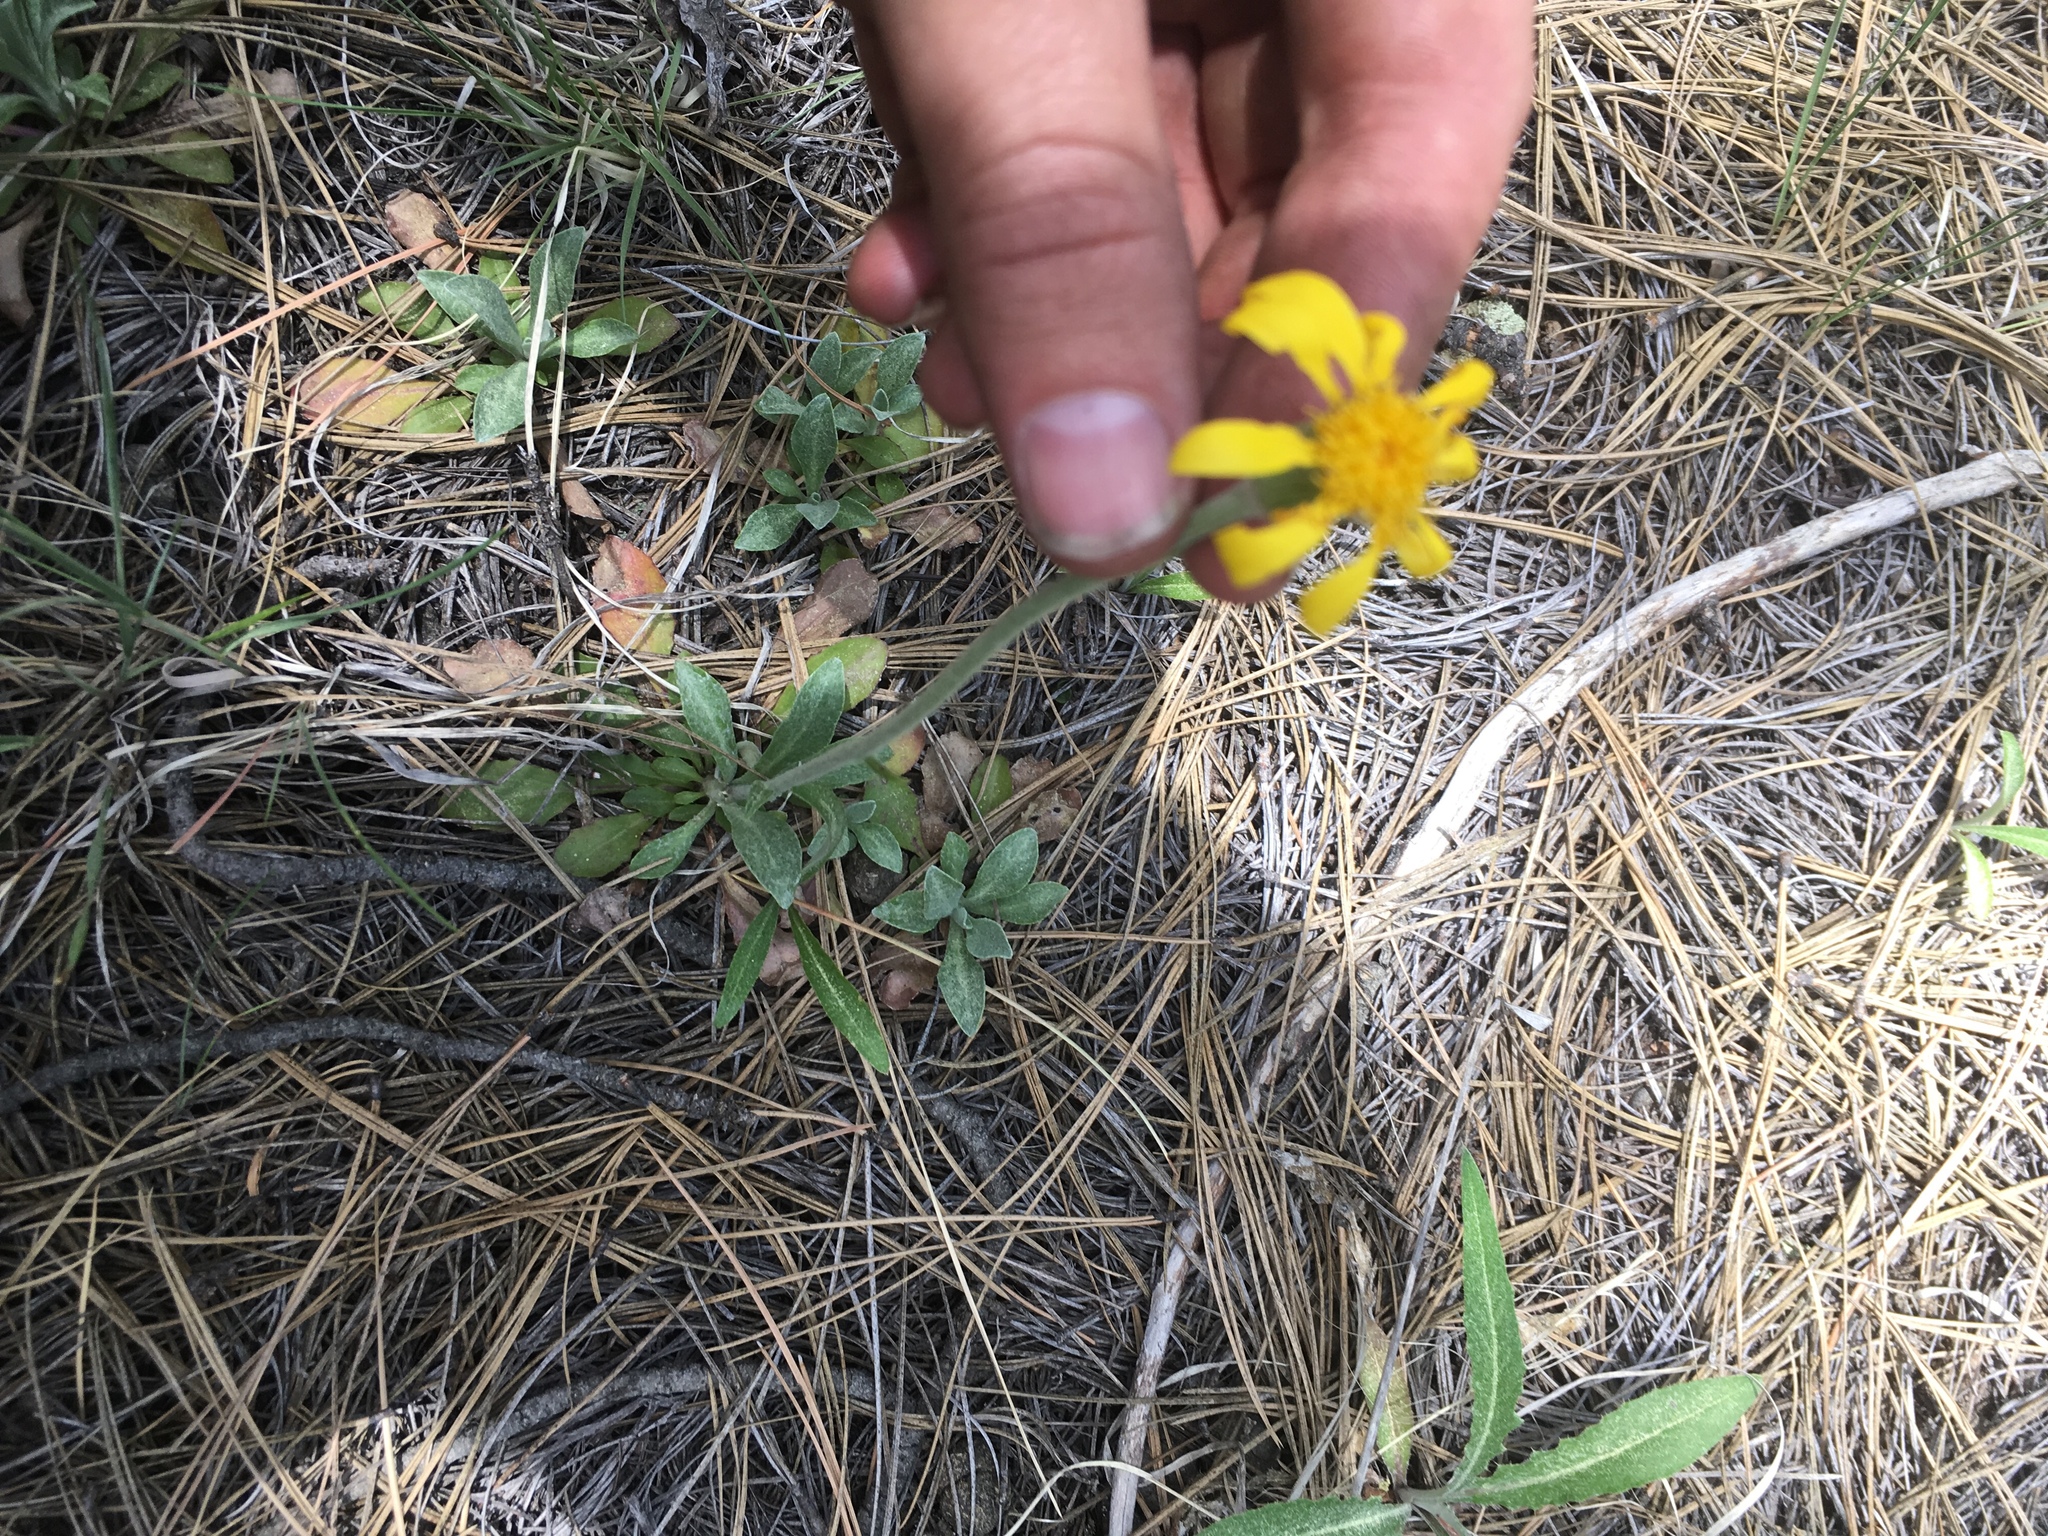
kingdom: Plantae
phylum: Tracheophyta
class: Magnoliopsida
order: Asterales
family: Asteraceae
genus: Packera
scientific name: Packera werneriifolia
